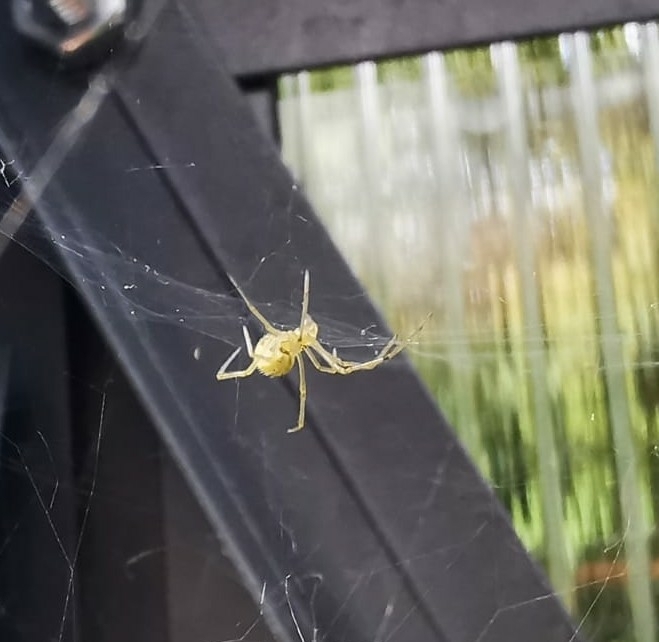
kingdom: Animalia
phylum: Arthropoda
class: Arachnida
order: Araneae
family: Theridiidae
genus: Enoplognatha
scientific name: Enoplognatha
